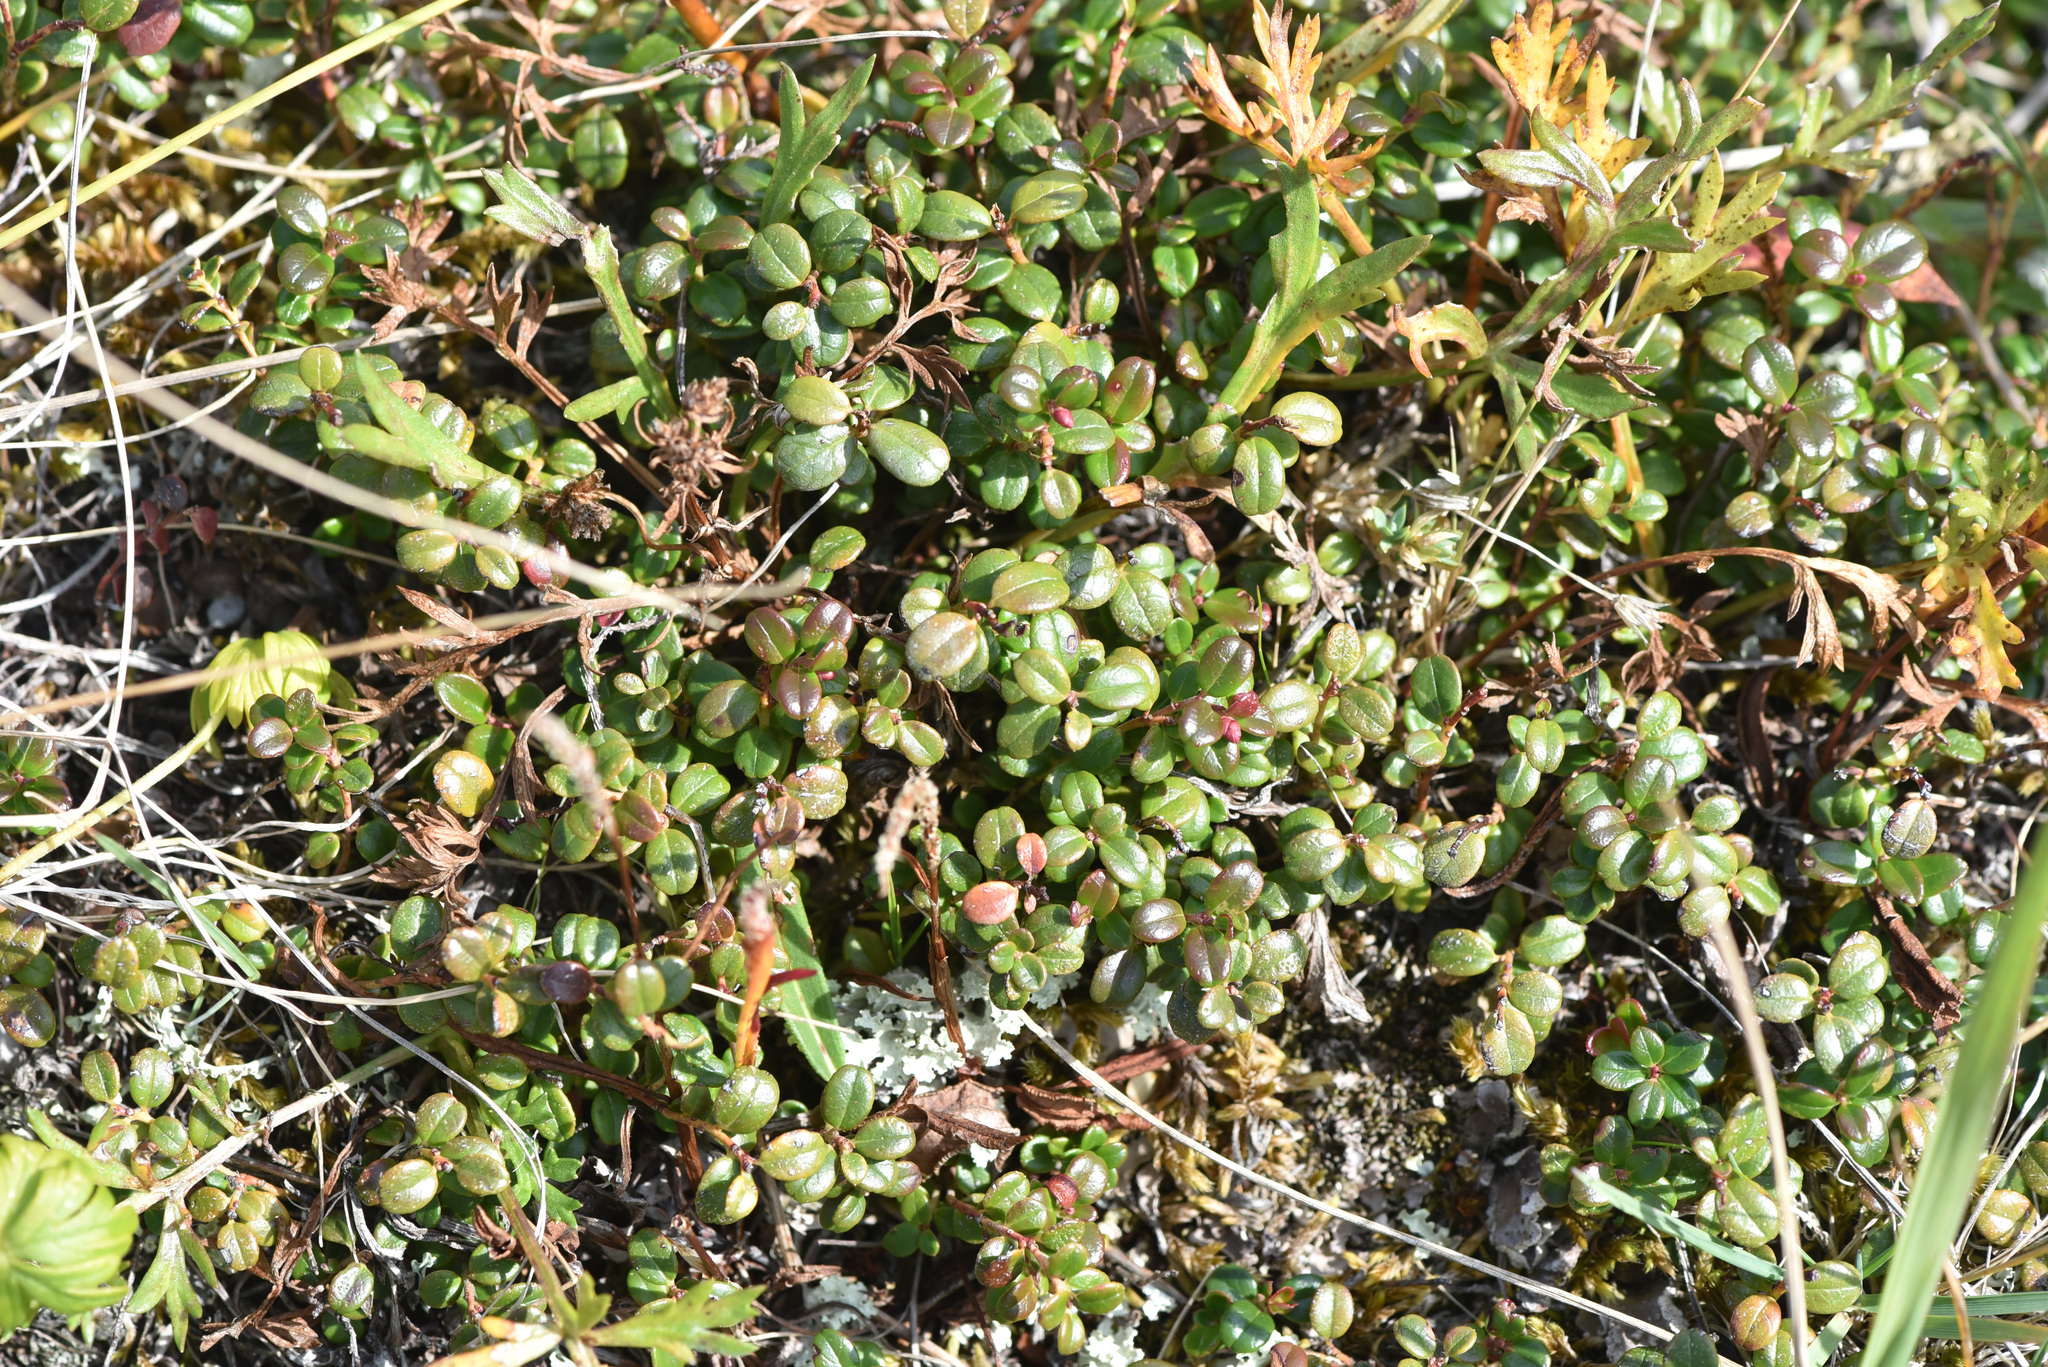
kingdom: Plantae
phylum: Tracheophyta
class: Magnoliopsida
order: Ericales
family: Ericaceae
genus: Vaccinium
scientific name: Vaccinium vitis-idaea
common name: Cowberry
